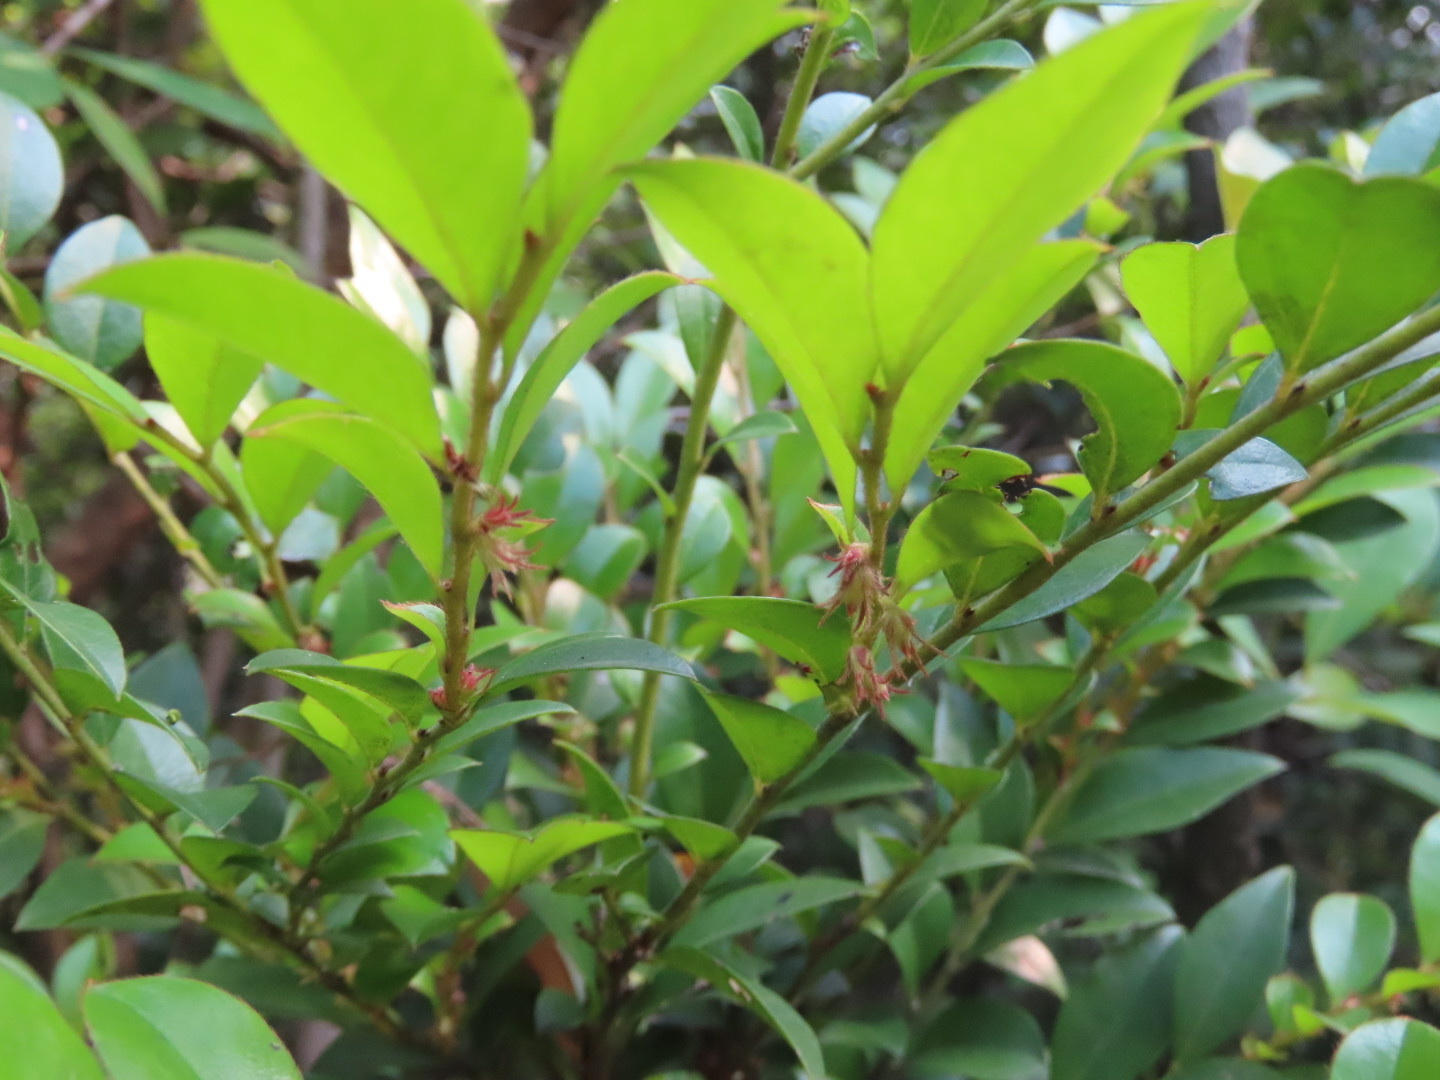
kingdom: Plantae
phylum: Tracheophyta
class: Magnoliopsida
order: Ericales
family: Ebenaceae
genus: Diospyros
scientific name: Diospyros vaccinioides
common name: Small persimmon
